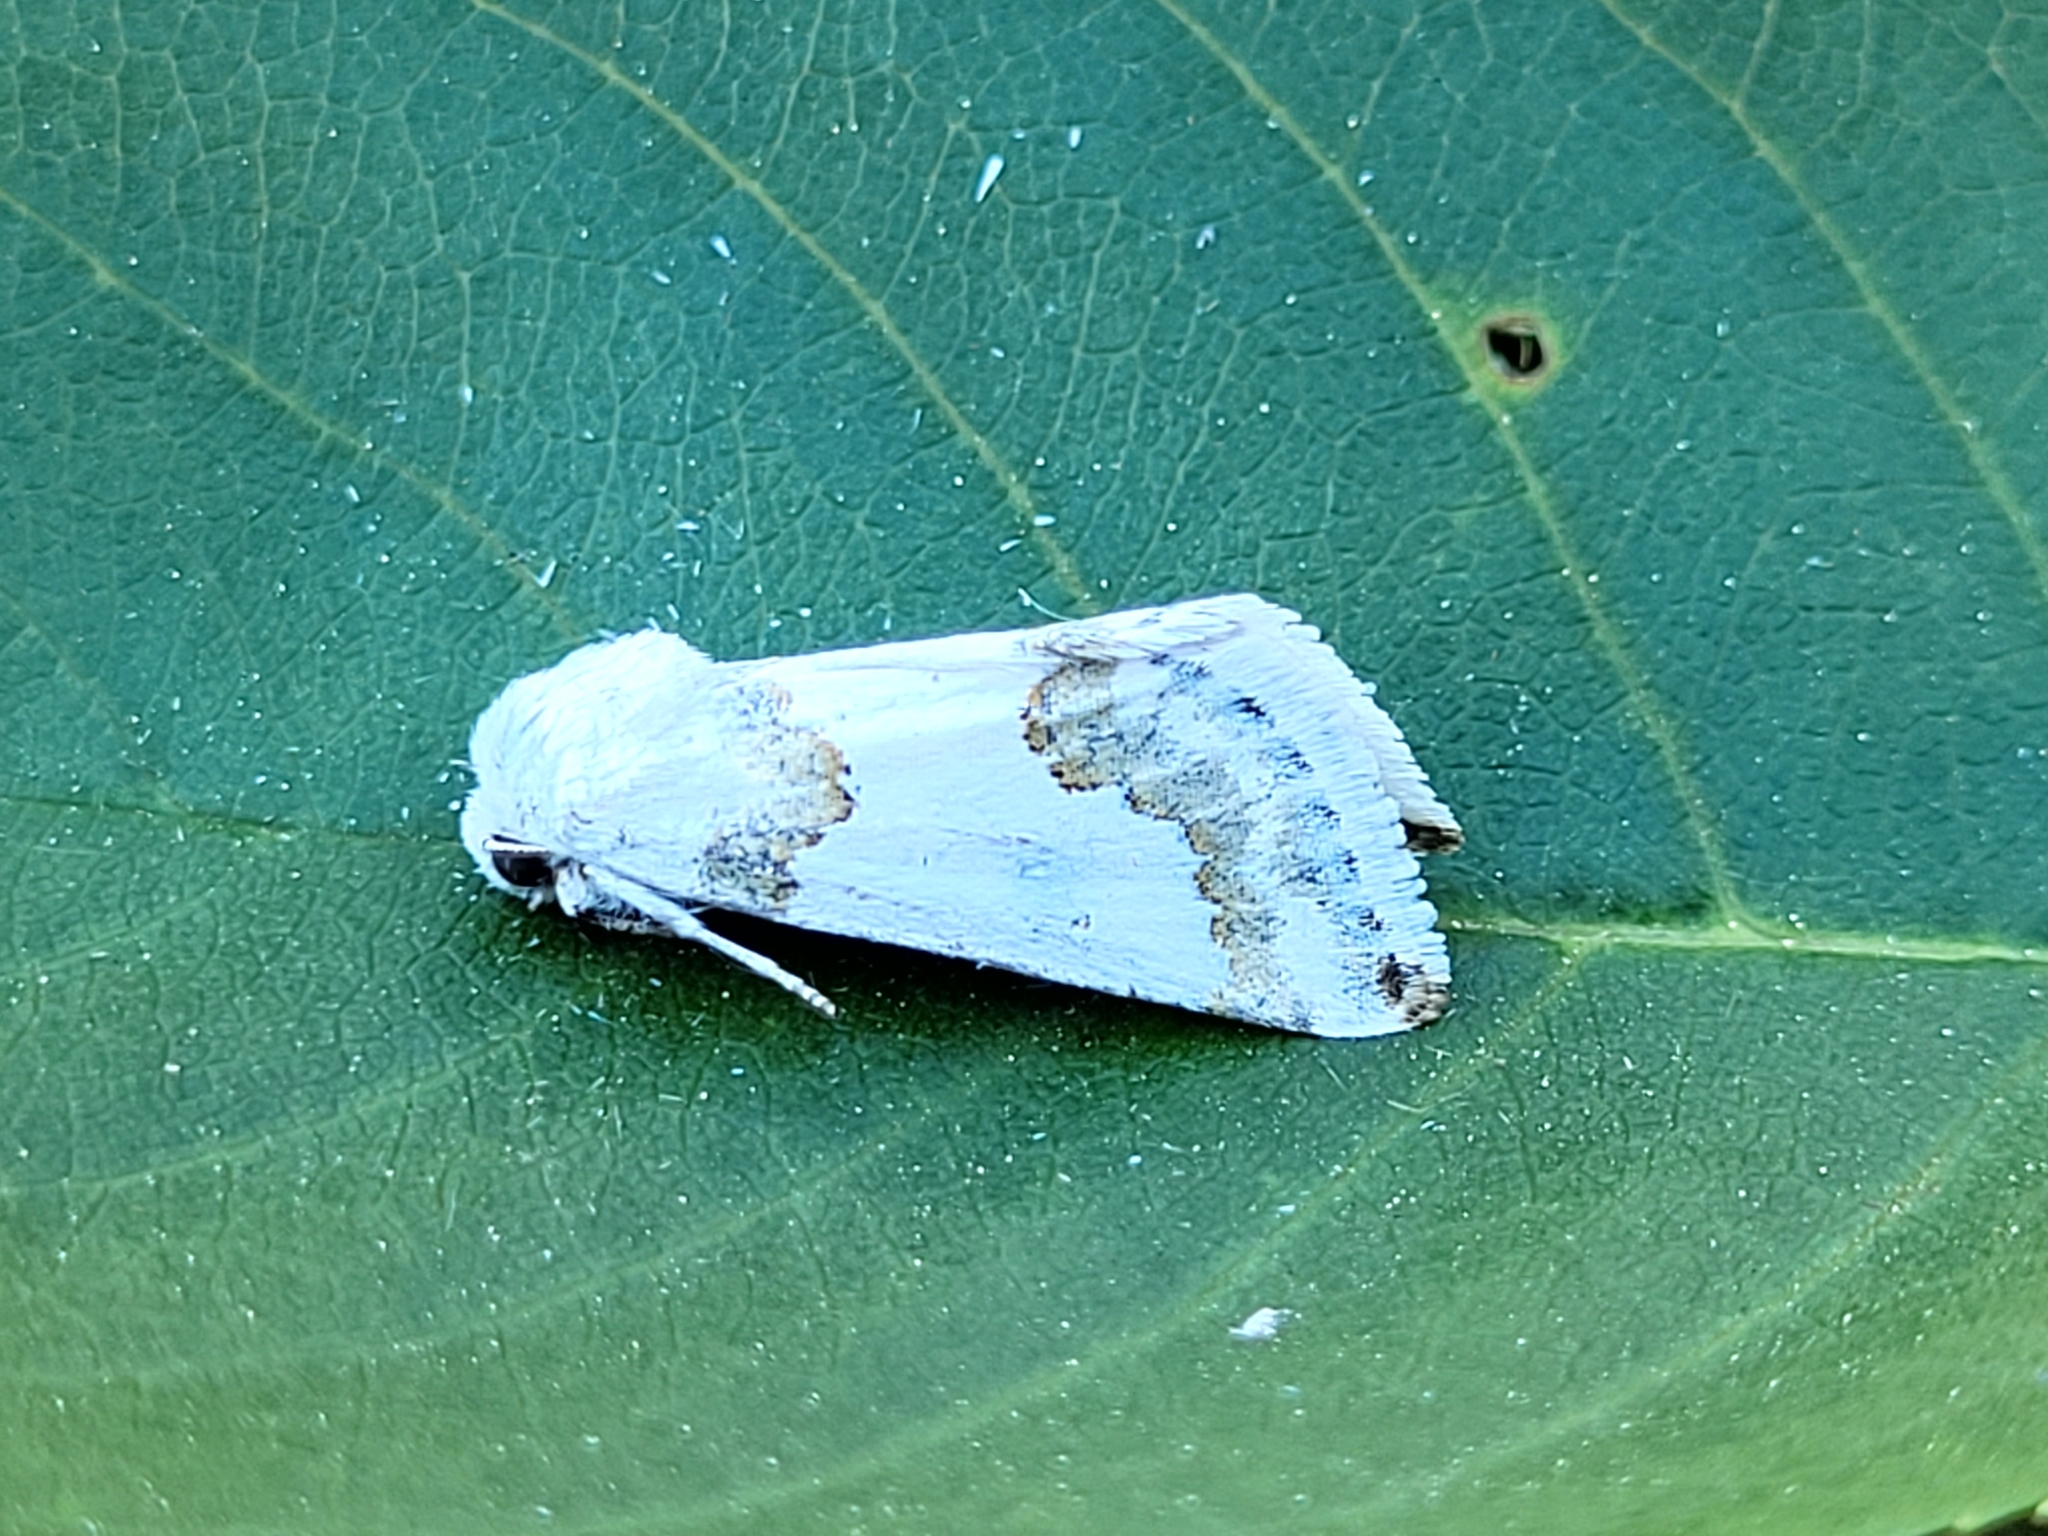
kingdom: Animalia
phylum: Arthropoda
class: Insecta
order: Lepidoptera
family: Noctuidae
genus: Schinia
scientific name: Schinia cumatilis
